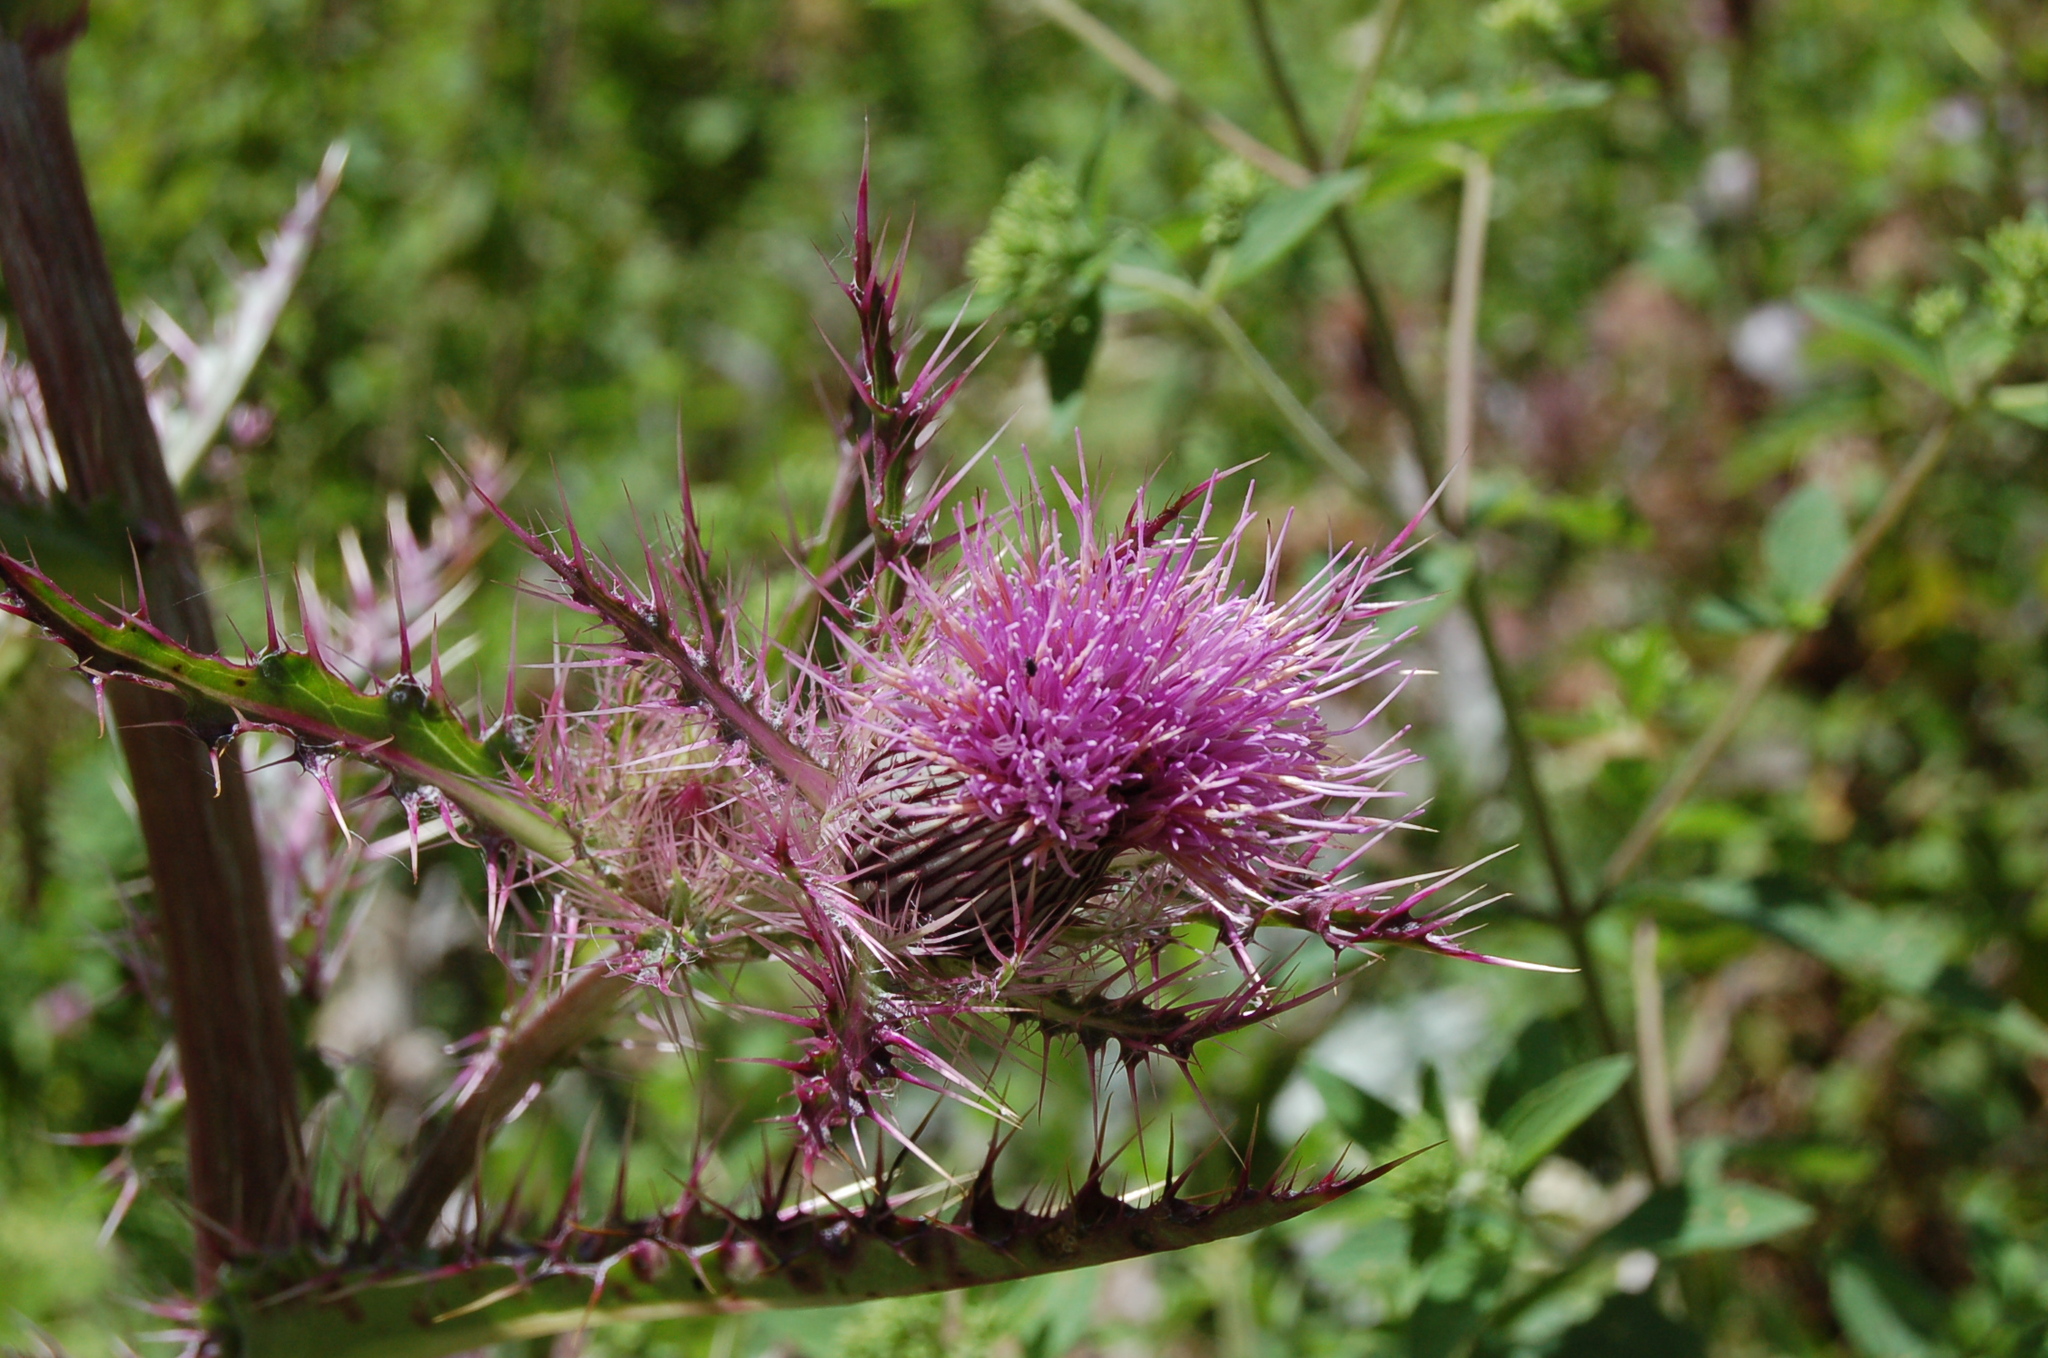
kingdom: Plantae
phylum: Tracheophyta
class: Magnoliopsida
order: Asterales
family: Asteraceae
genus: Cirsium
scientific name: Cirsium horridulum
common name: Bristly thistle
